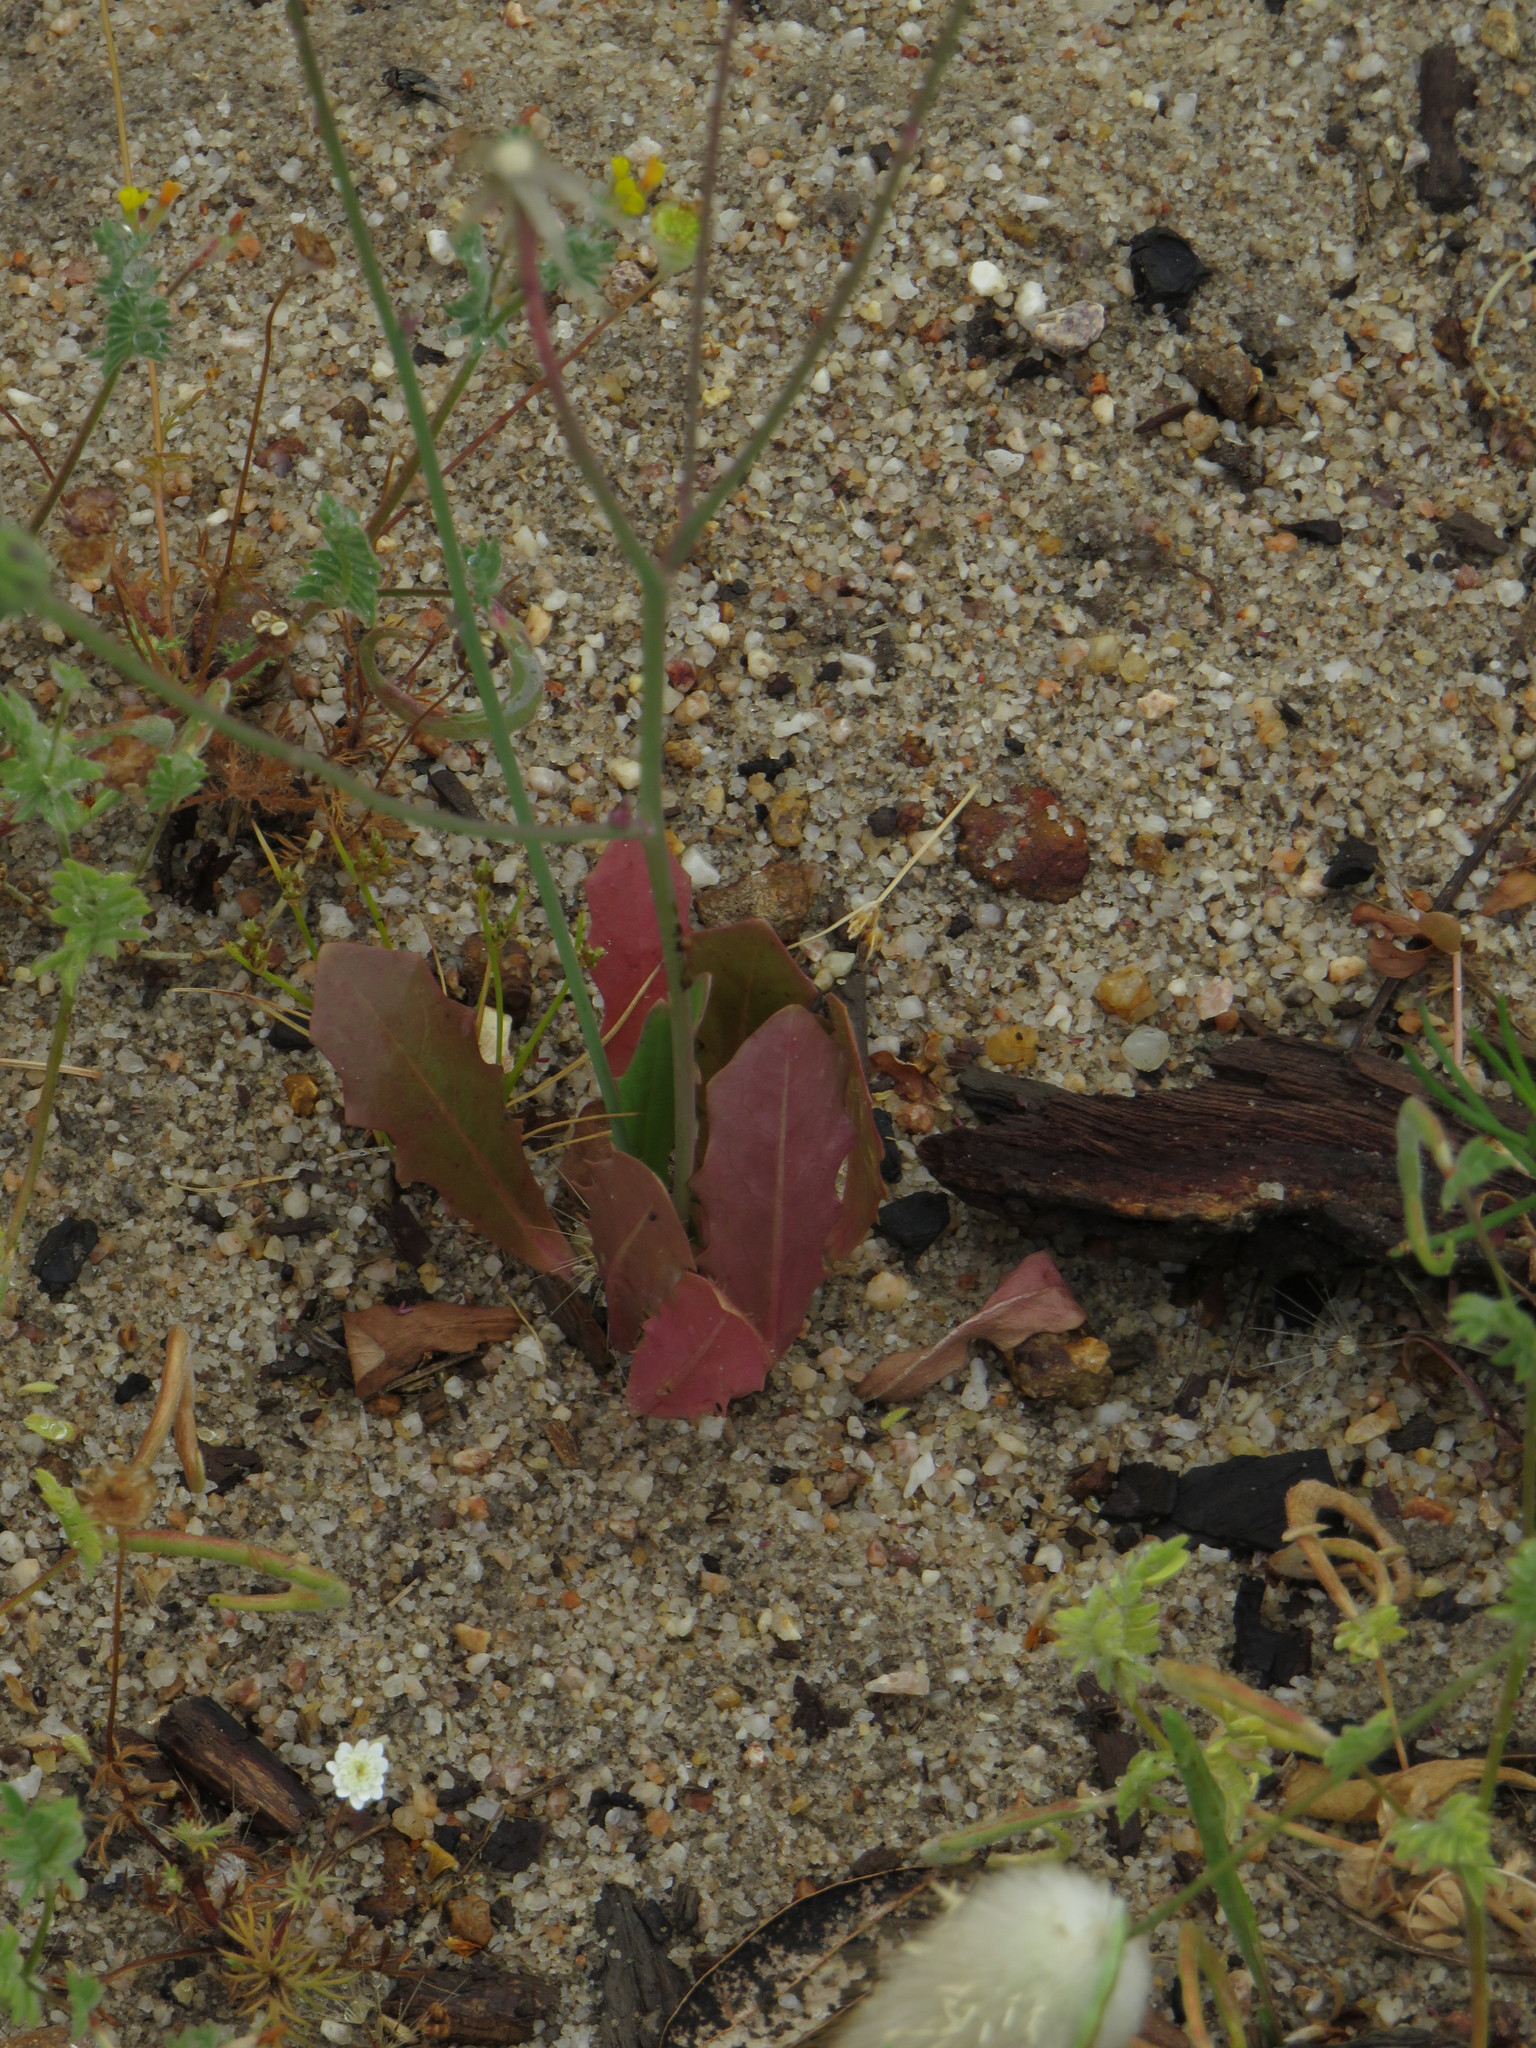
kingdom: Plantae
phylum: Tracheophyta
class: Magnoliopsida
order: Asterales
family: Asteraceae
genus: Hypochaeris
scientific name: Hypochaeris glabra
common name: Smooth catsear
